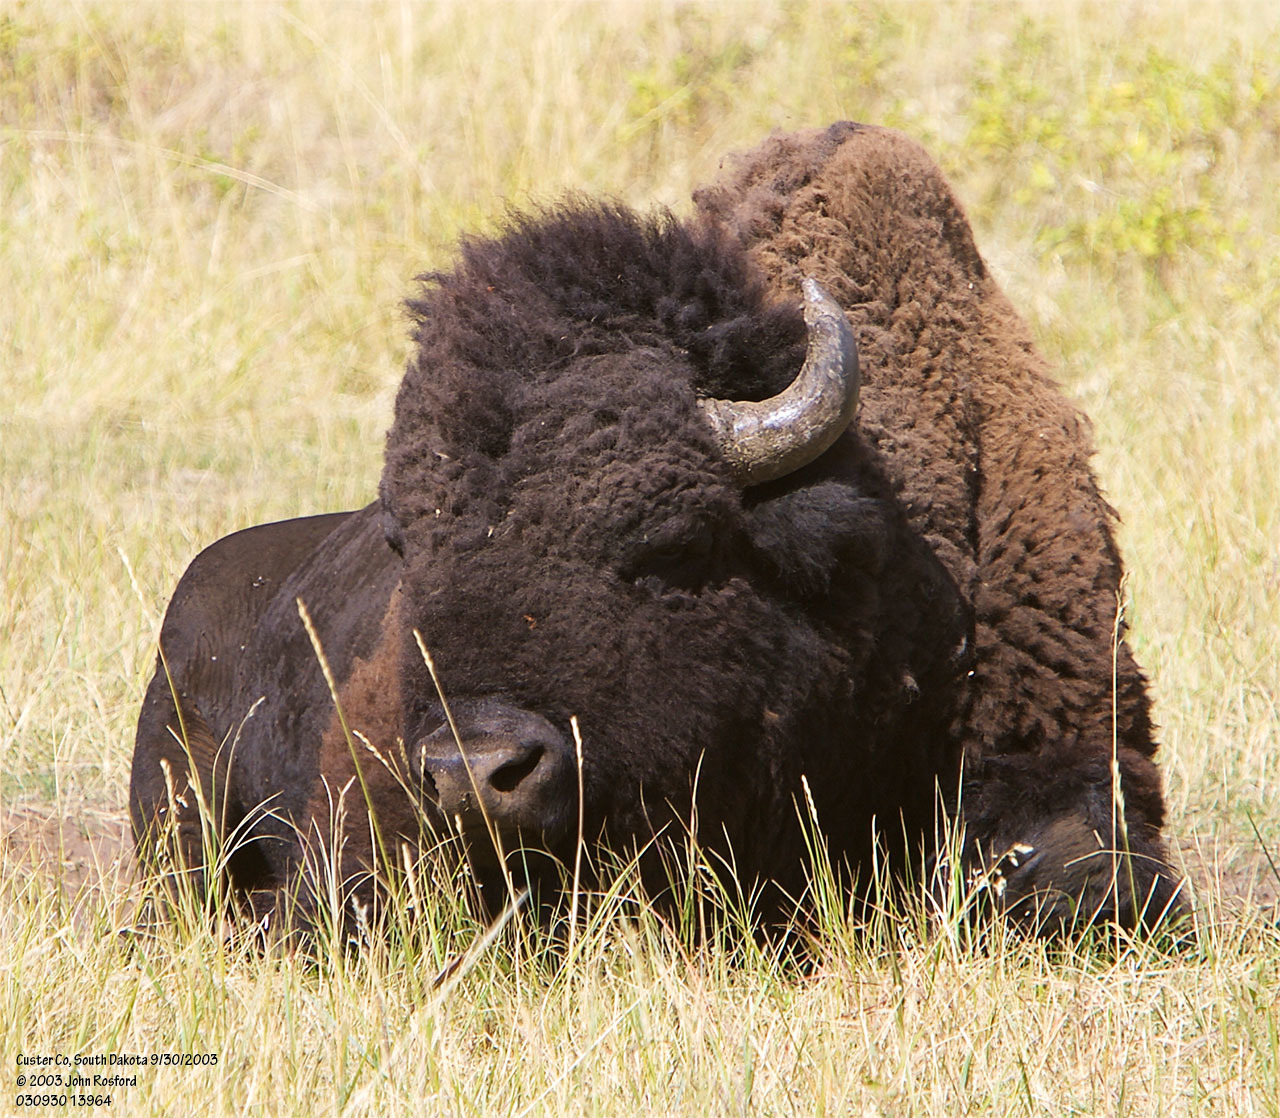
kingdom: Animalia
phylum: Chordata
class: Mammalia
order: Artiodactyla
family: Bovidae
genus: Bison
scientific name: Bison bison
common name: American bison
